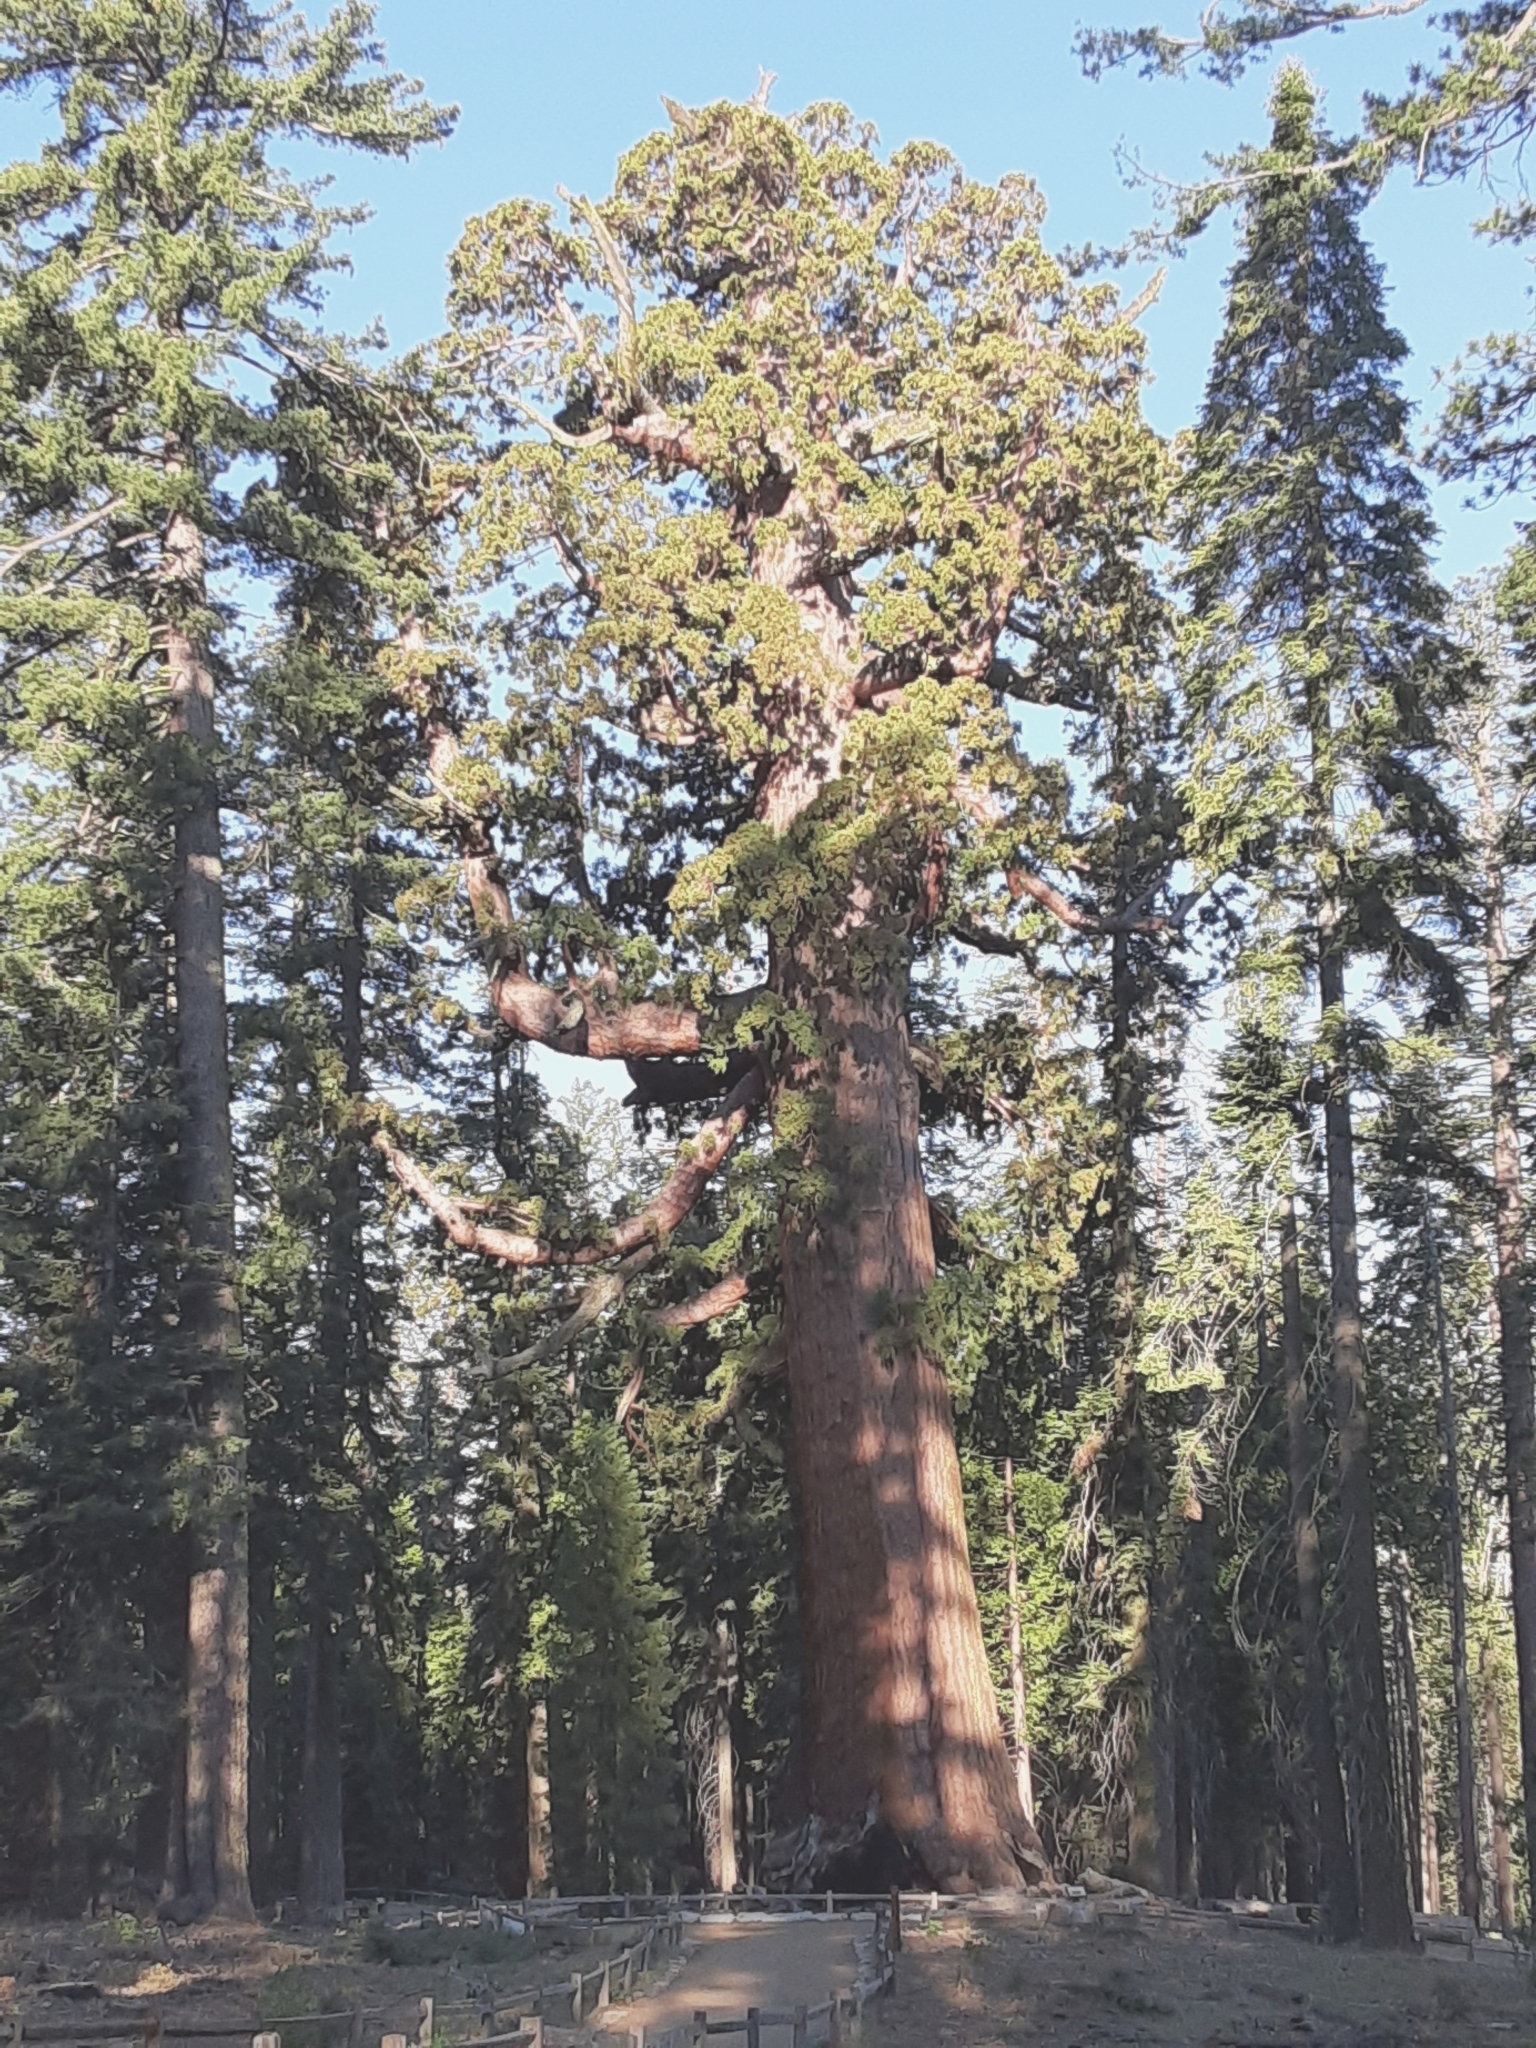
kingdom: Plantae
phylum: Tracheophyta
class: Pinopsida
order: Pinales
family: Cupressaceae
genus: Sequoiadendron
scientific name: Sequoiadendron giganteum
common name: Wellingtonia
